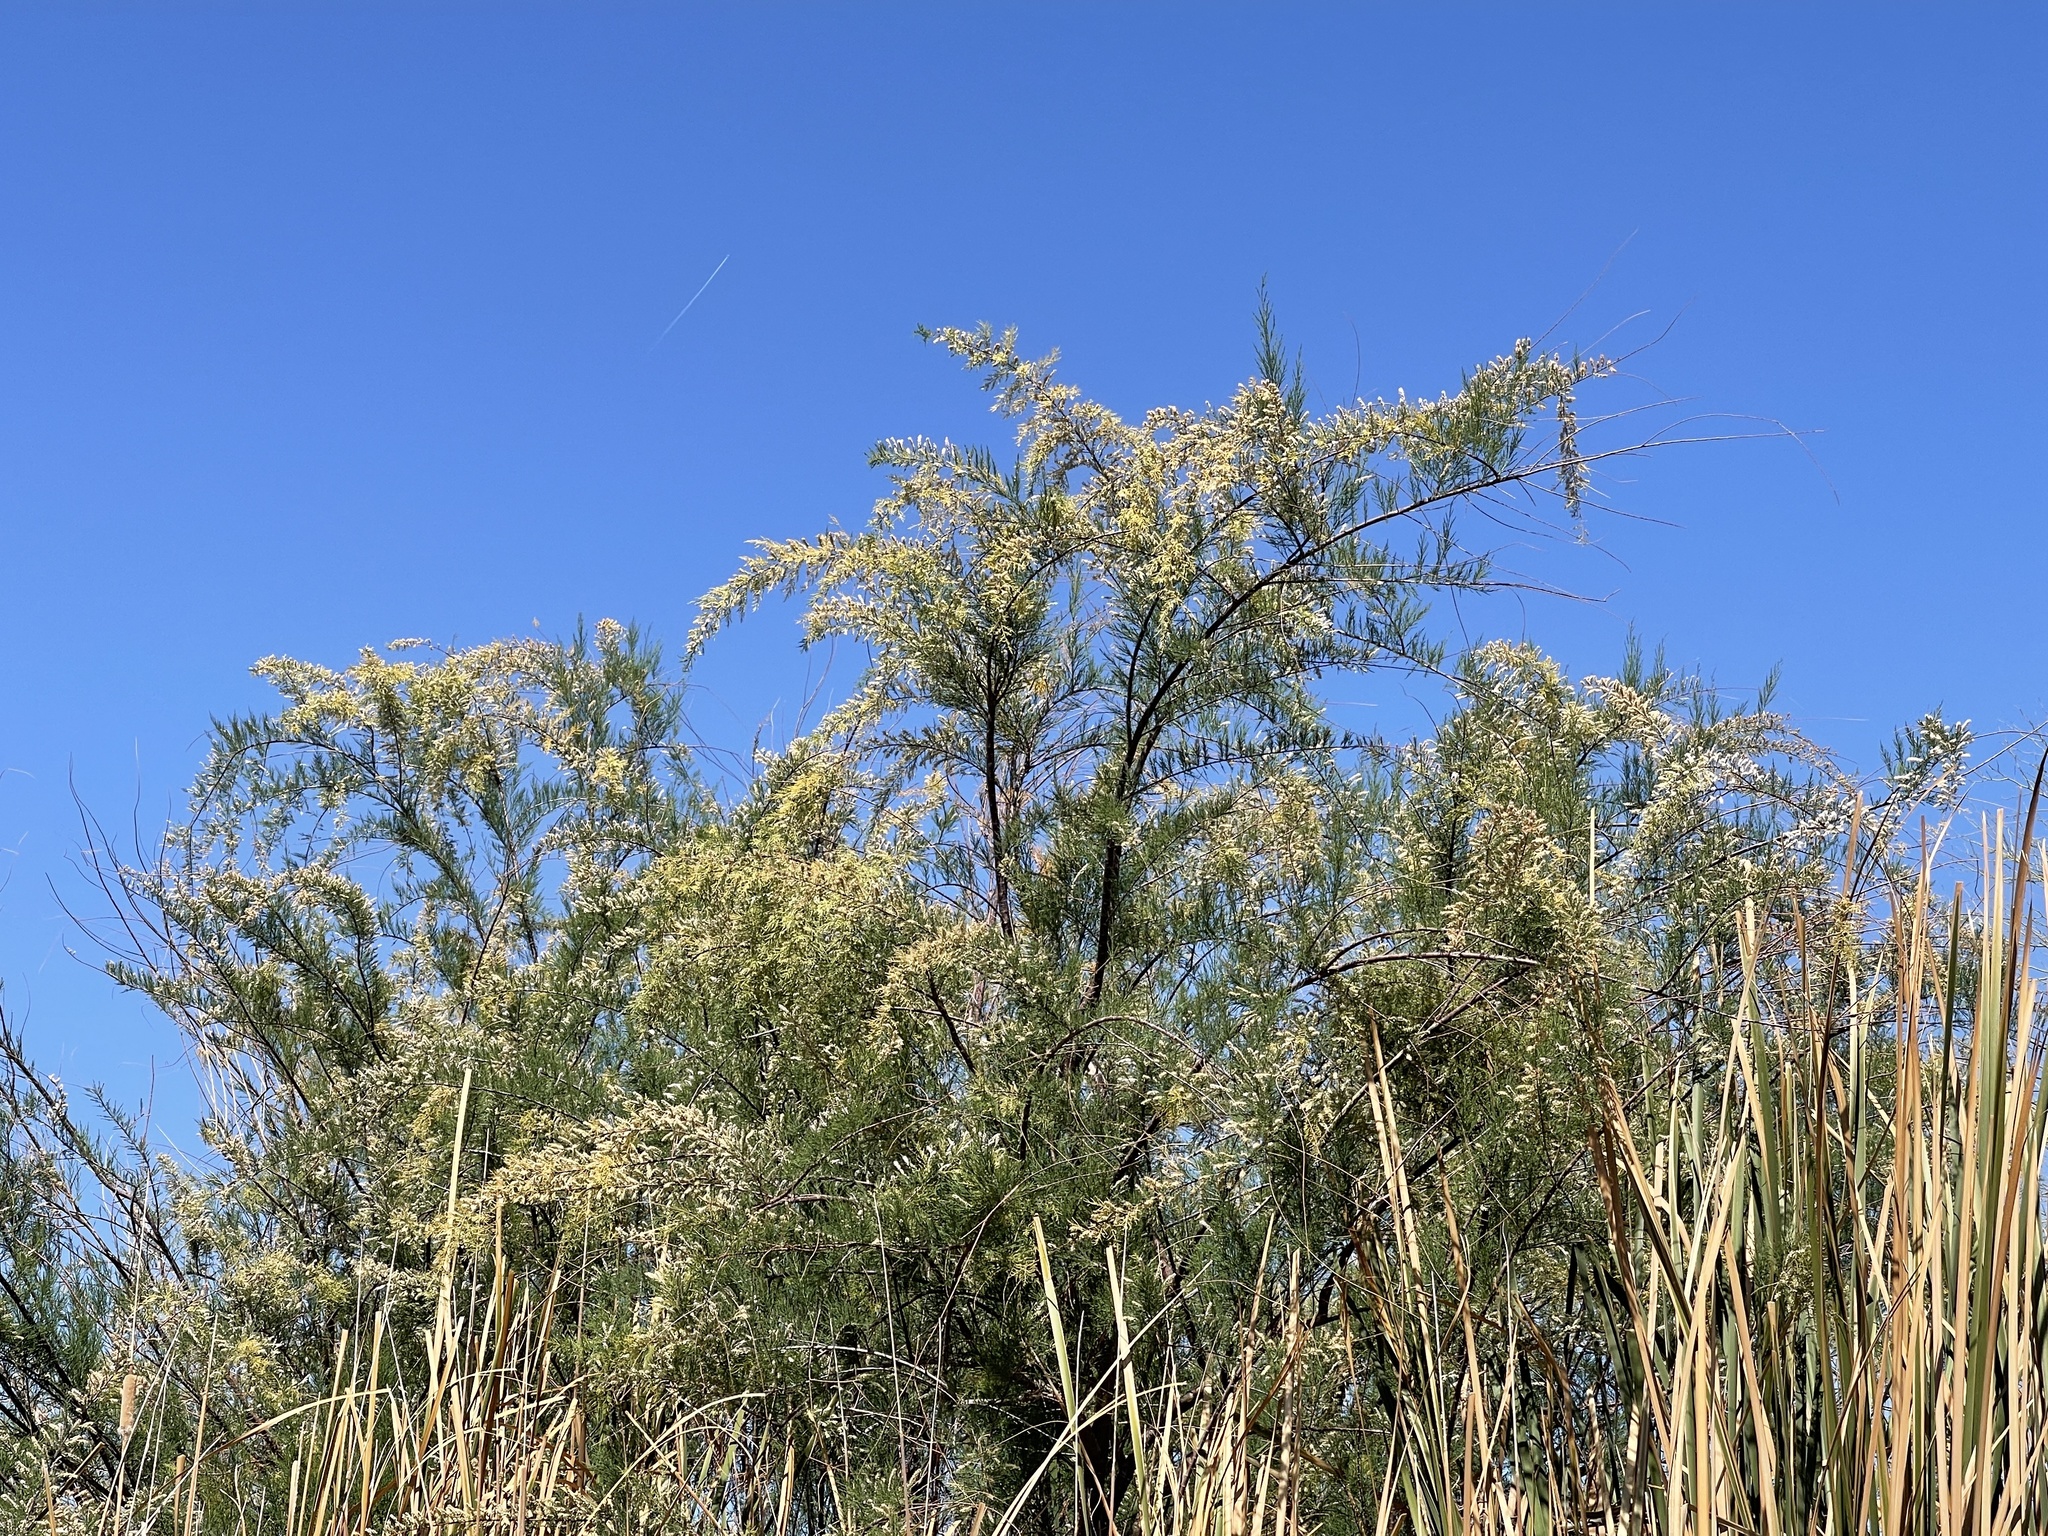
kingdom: Plantae
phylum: Tracheophyta
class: Magnoliopsida
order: Caryophyllales
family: Tamaricaceae
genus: Tamarix
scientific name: Tamarix chinensis
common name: Chinese tamarisk
